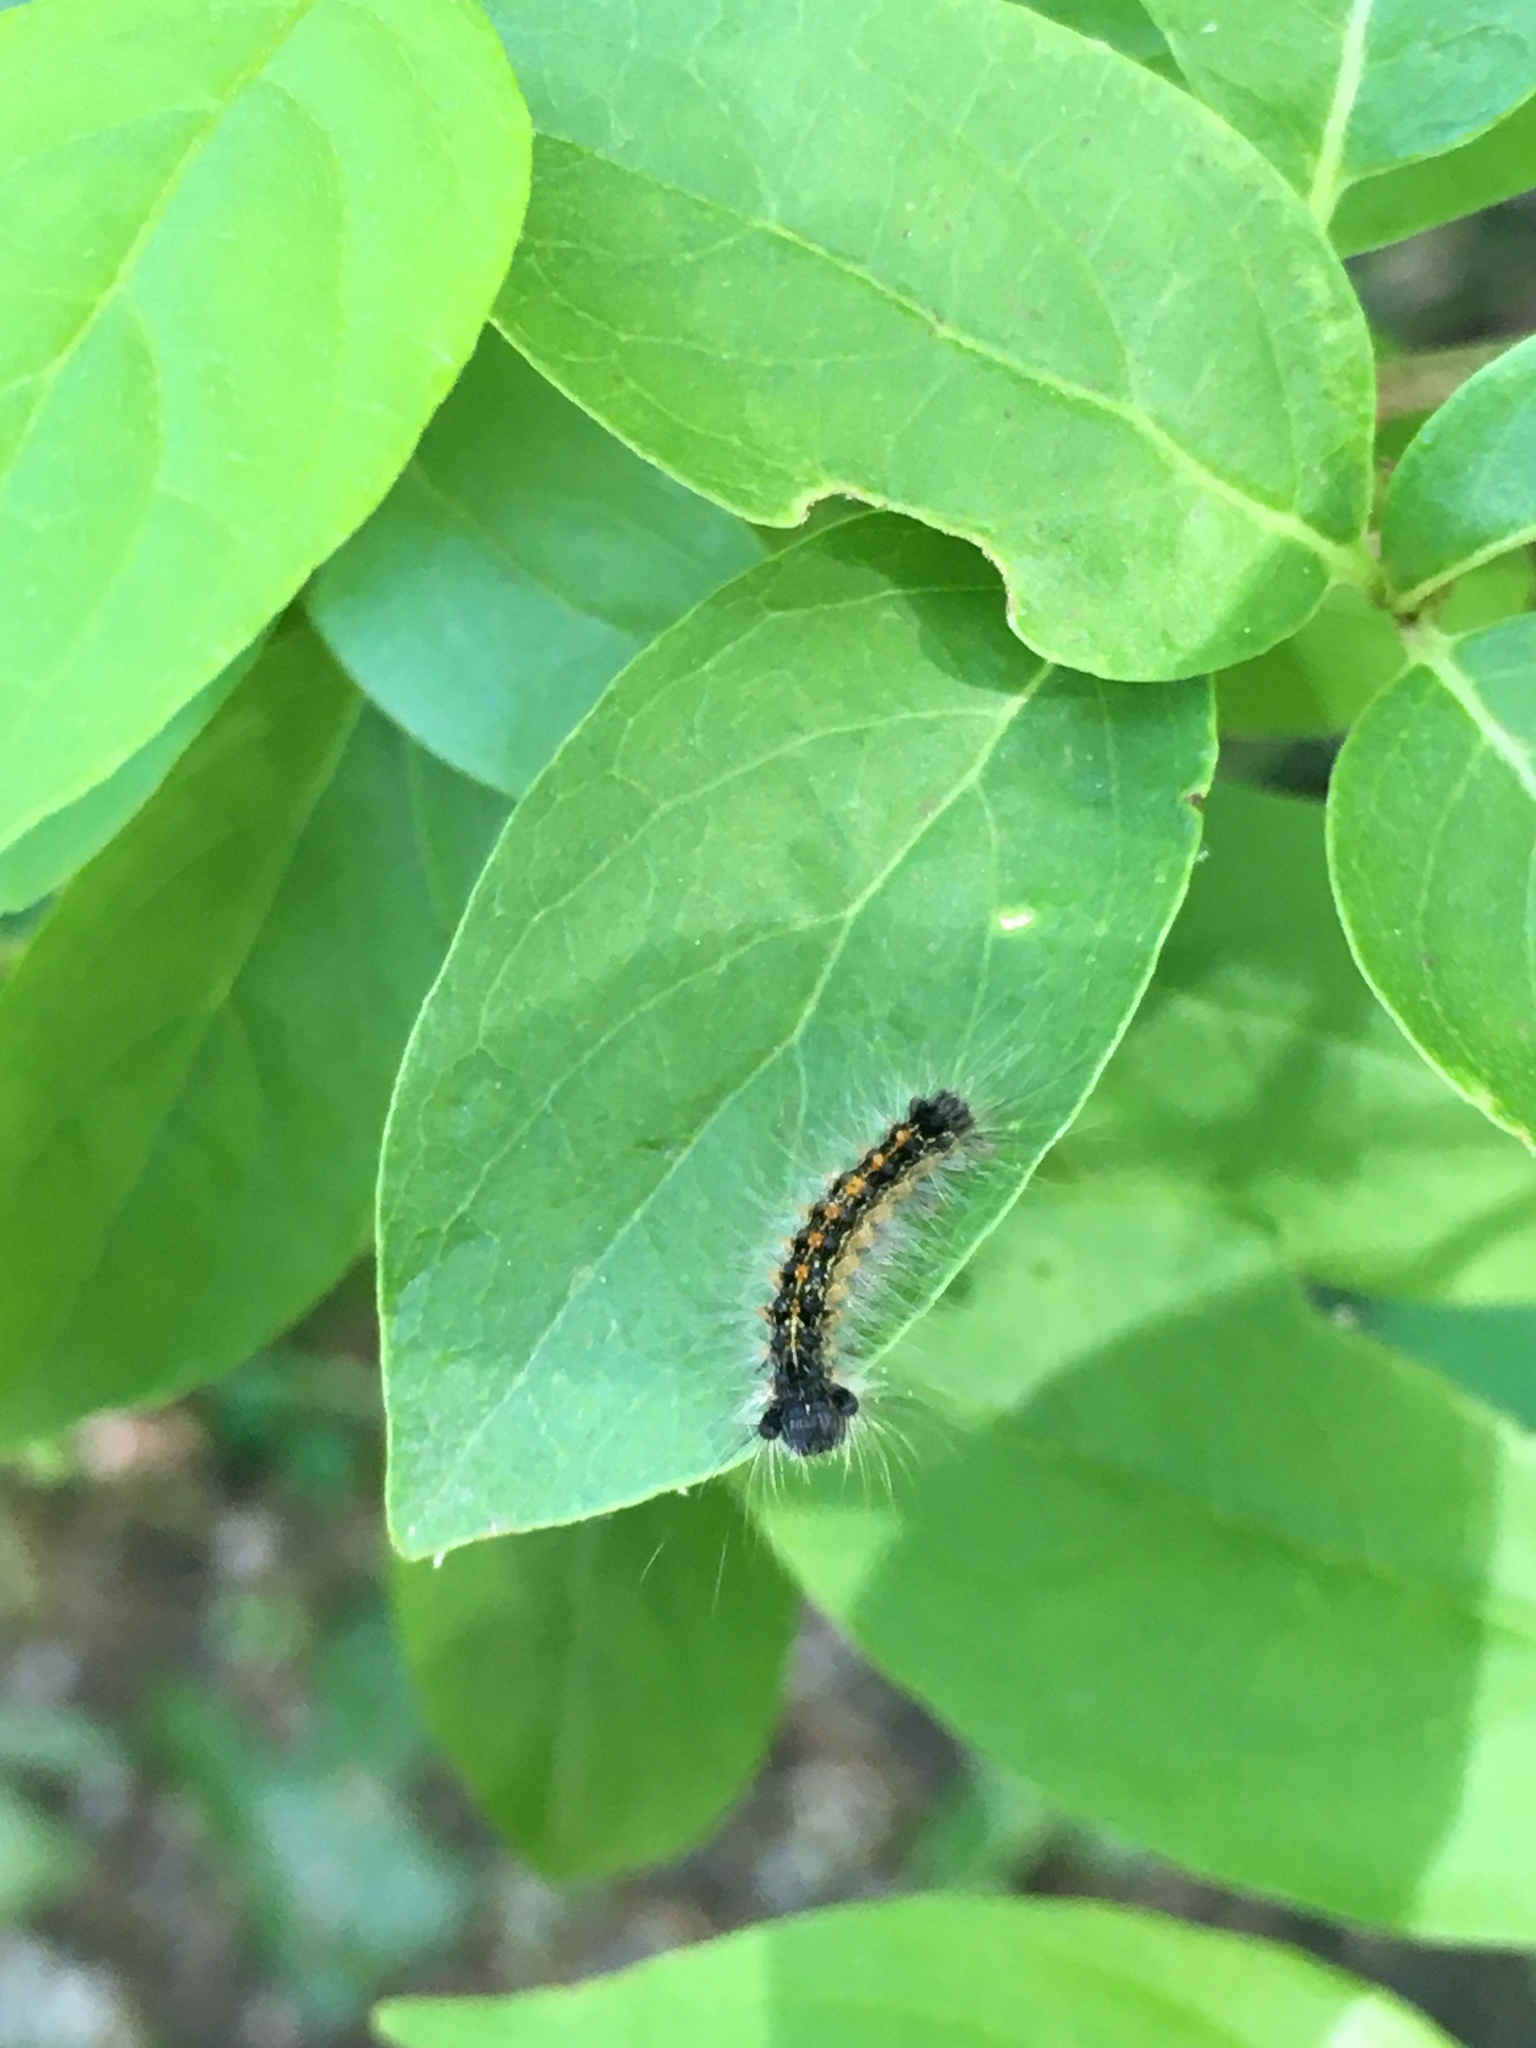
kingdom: Animalia
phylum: Arthropoda
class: Insecta
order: Lepidoptera
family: Erebidae
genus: Lymantria
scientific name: Lymantria dispar
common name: Gypsy moth
